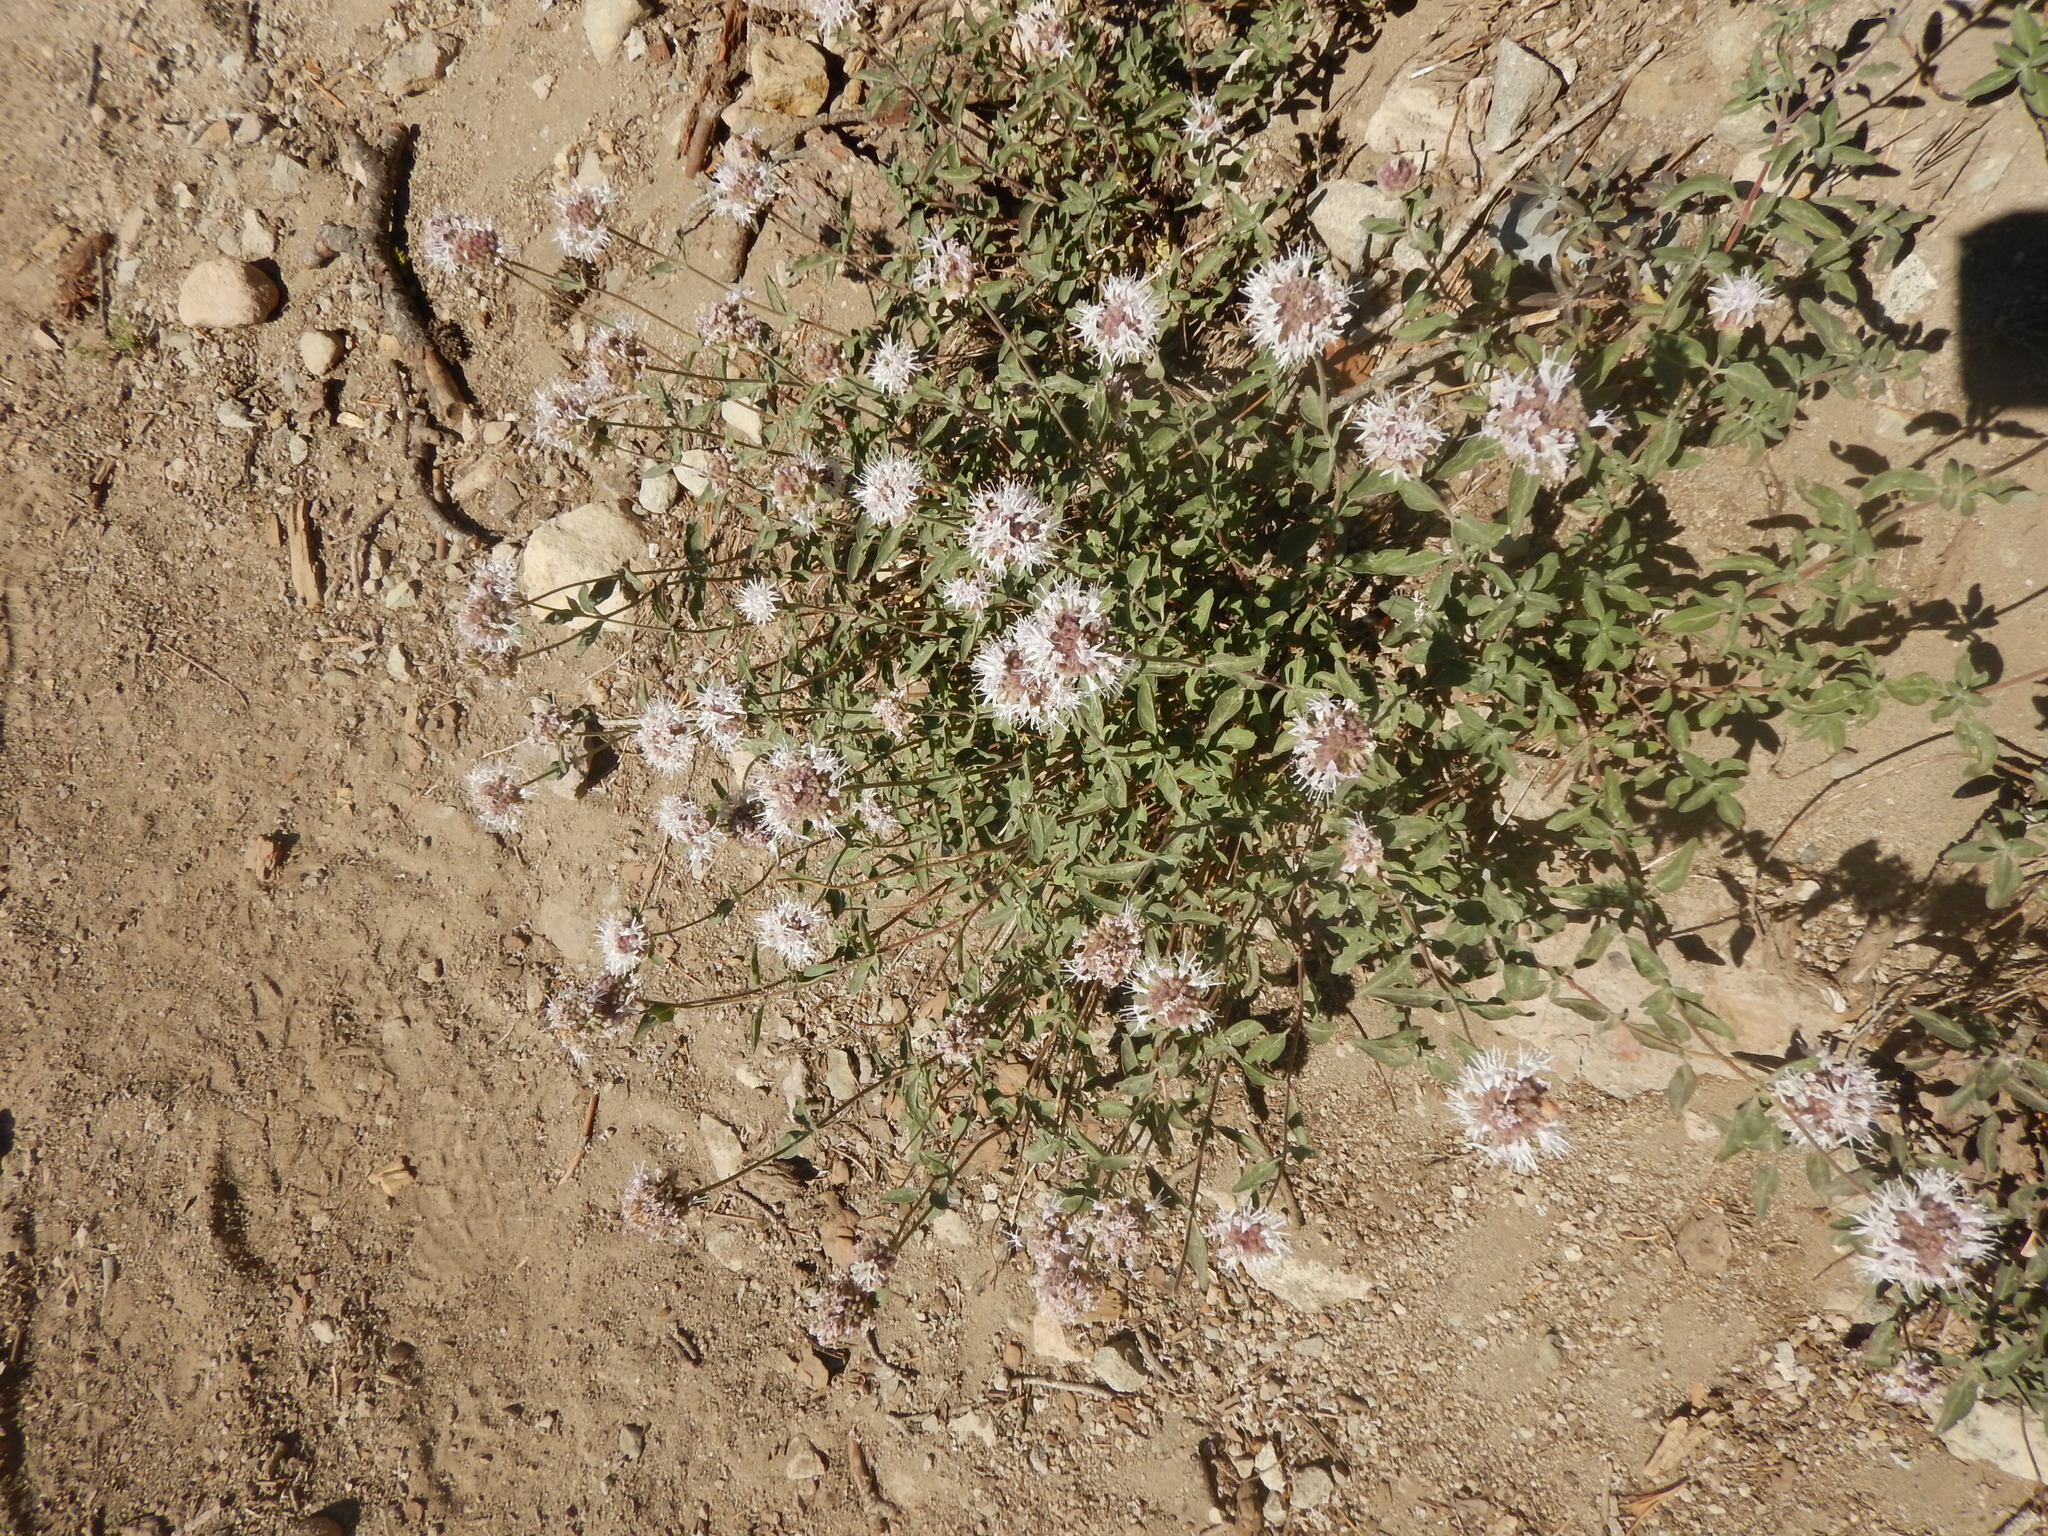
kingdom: Plantae
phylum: Tracheophyta
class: Magnoliopsida
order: Lamiales
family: Lamiaceae
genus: Monardella
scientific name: Monardella odoratissima
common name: Pacific monardella
